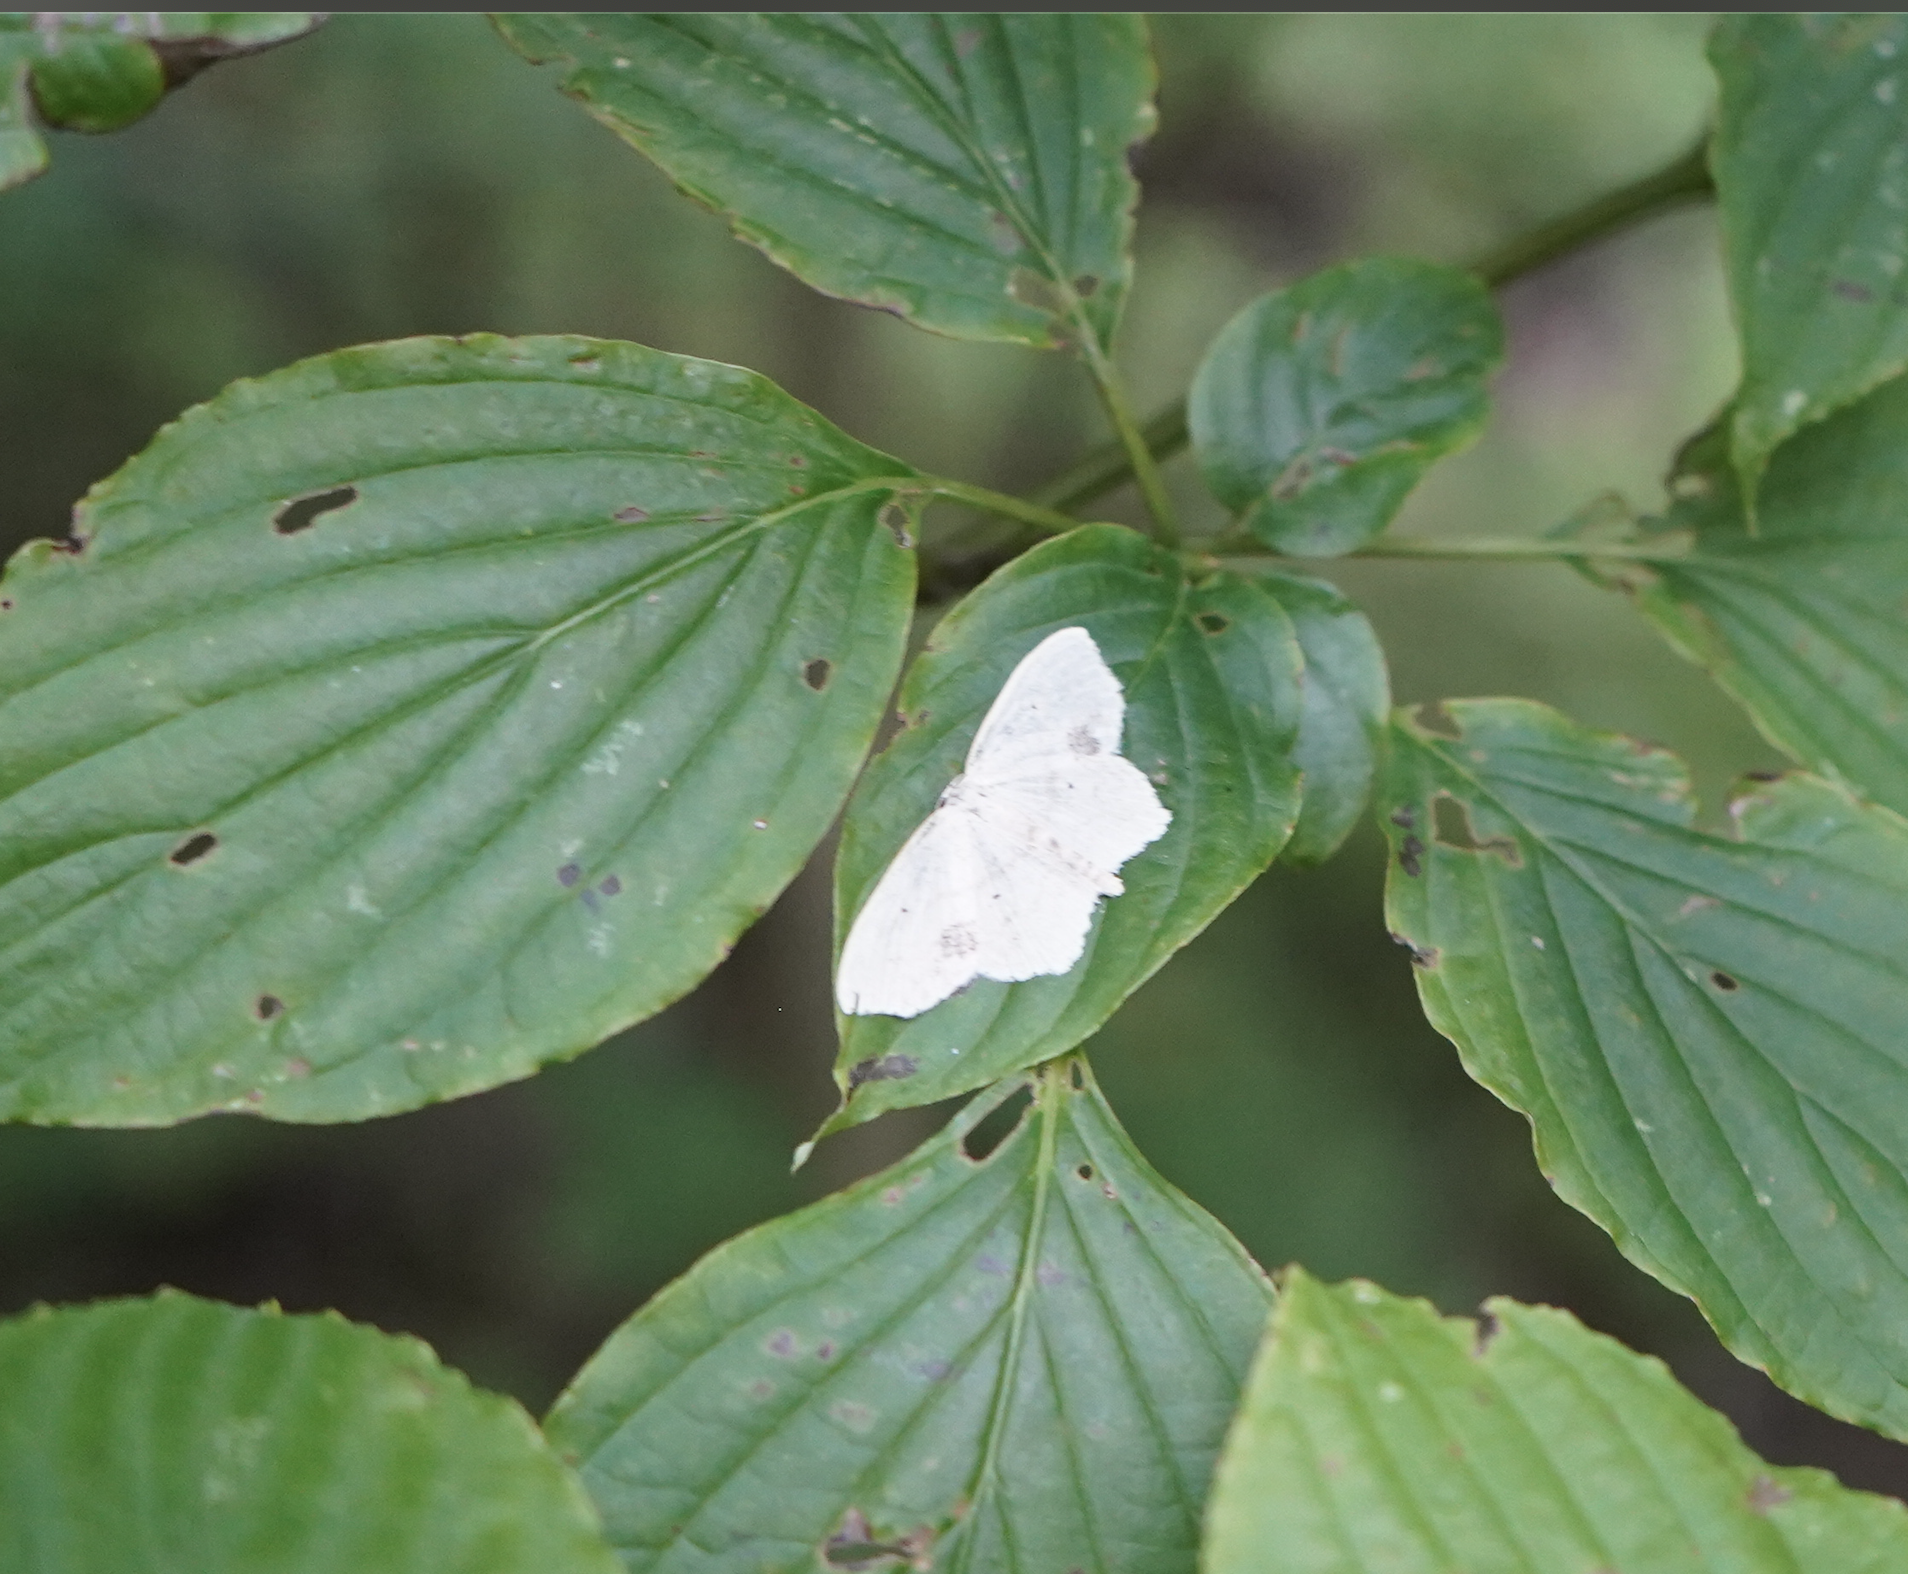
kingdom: Animalia
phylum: Arthropoda
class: Insecta
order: Lepidoptera
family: Geometridae
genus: Scopula
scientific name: Scopula limboundata
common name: Large lace border
